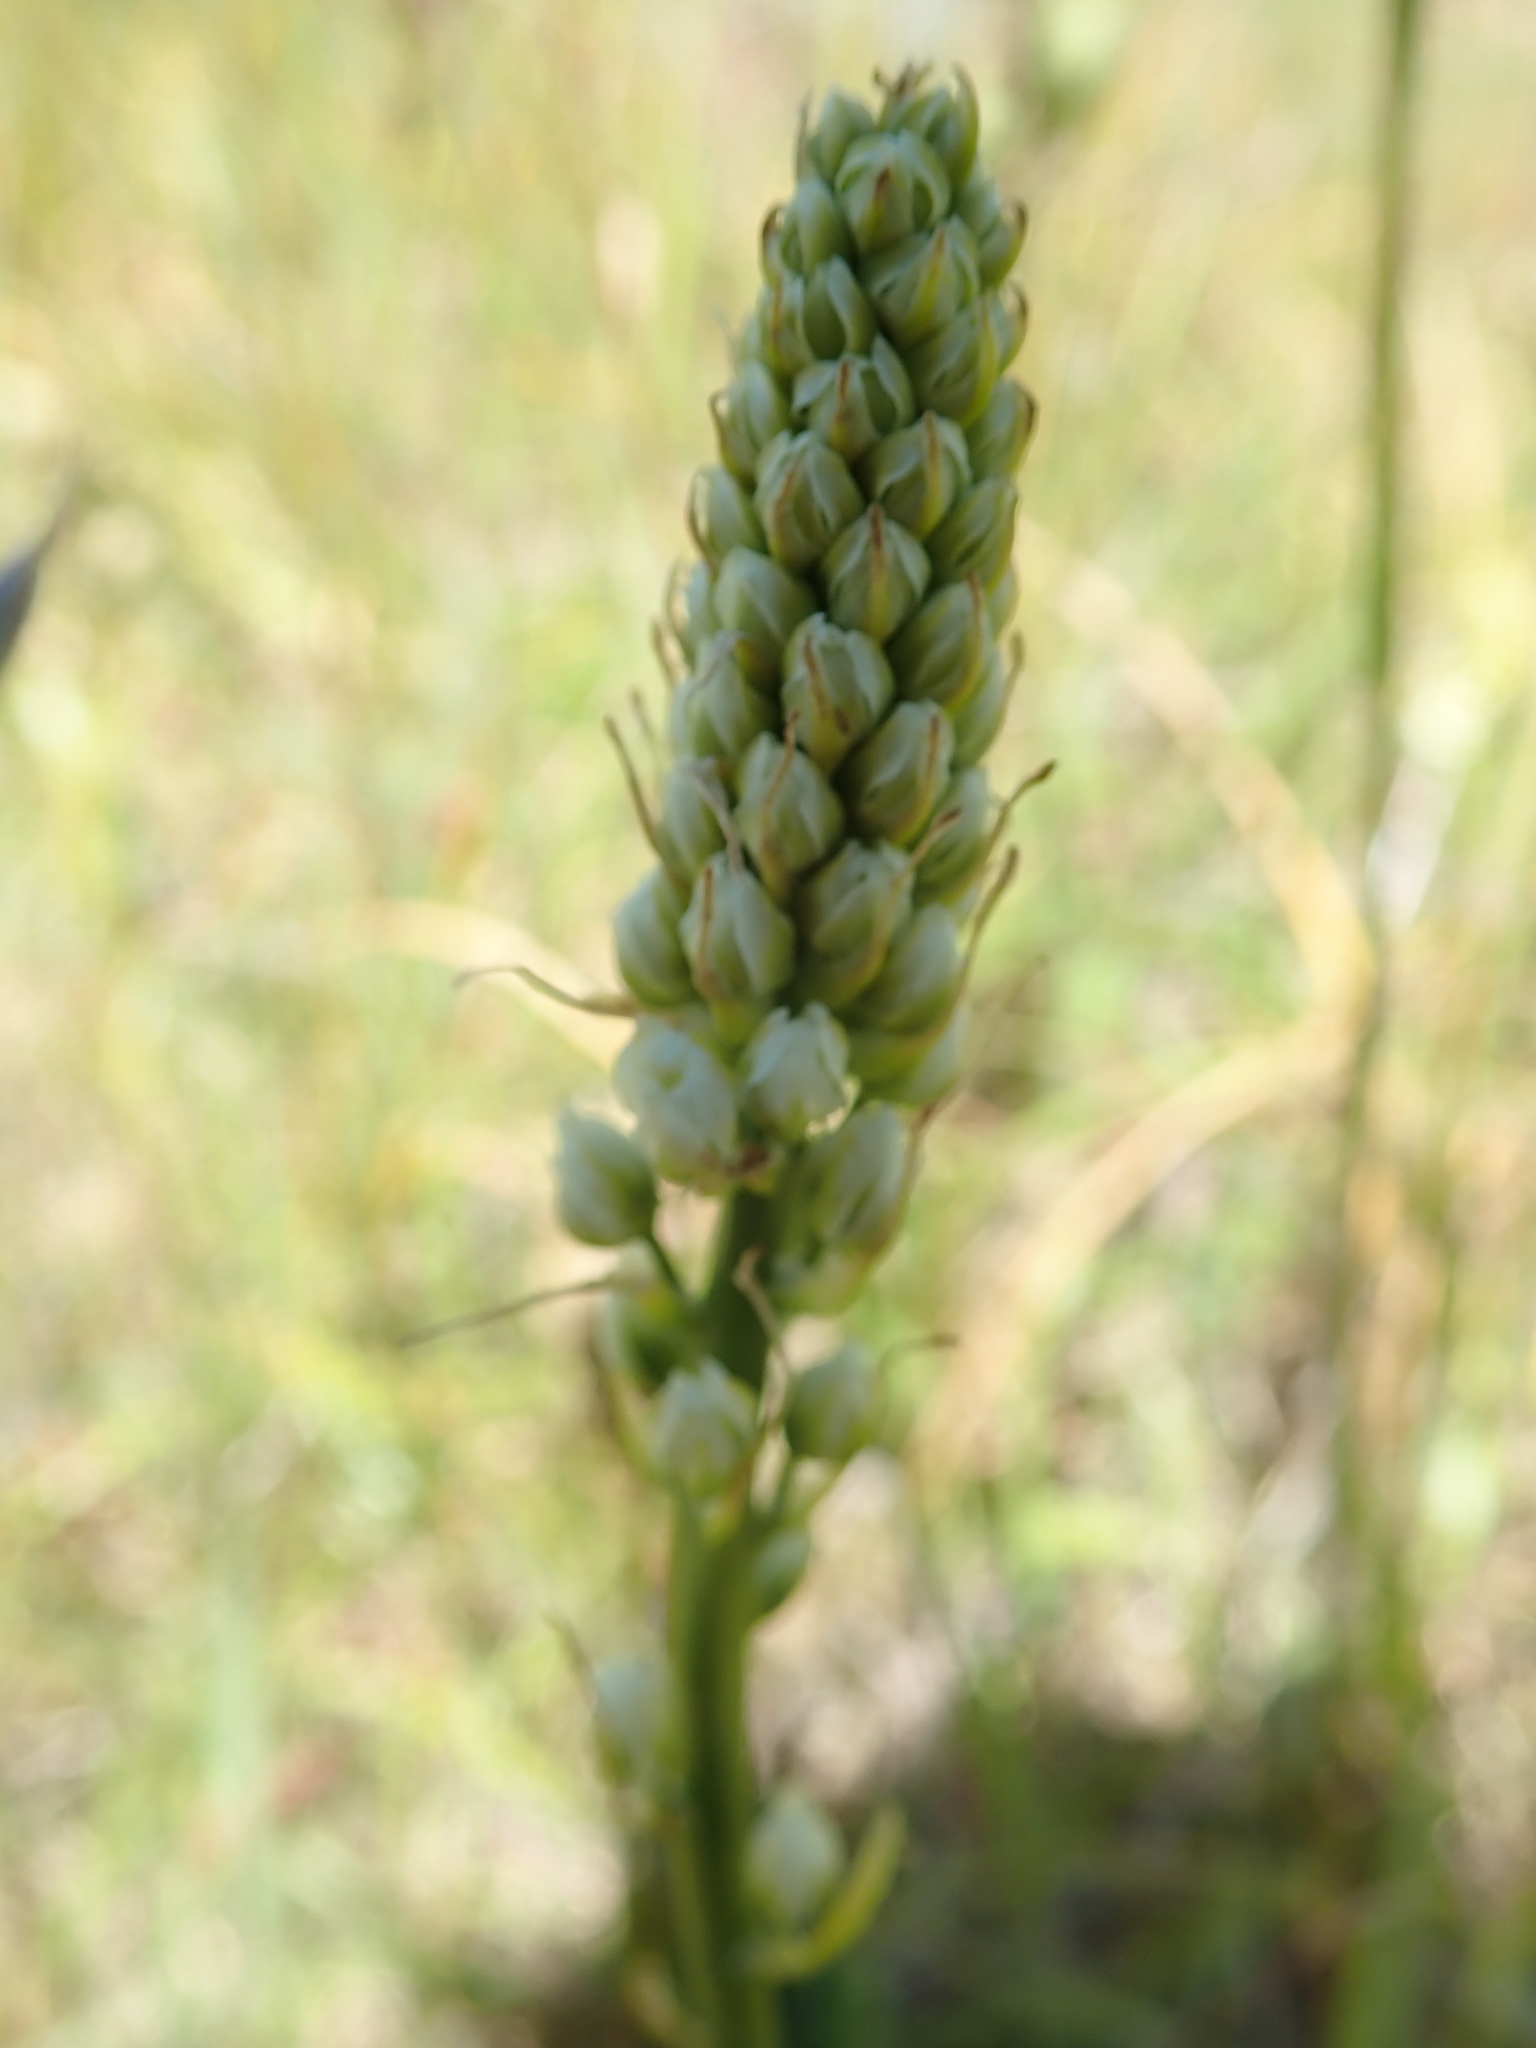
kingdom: Plantae
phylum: Tracheophyta
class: Liliopsida
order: Liliales
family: Melanthiaceae
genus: Toxicoscordion
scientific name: Toxicoscordion venenosum
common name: Meadow death camas
